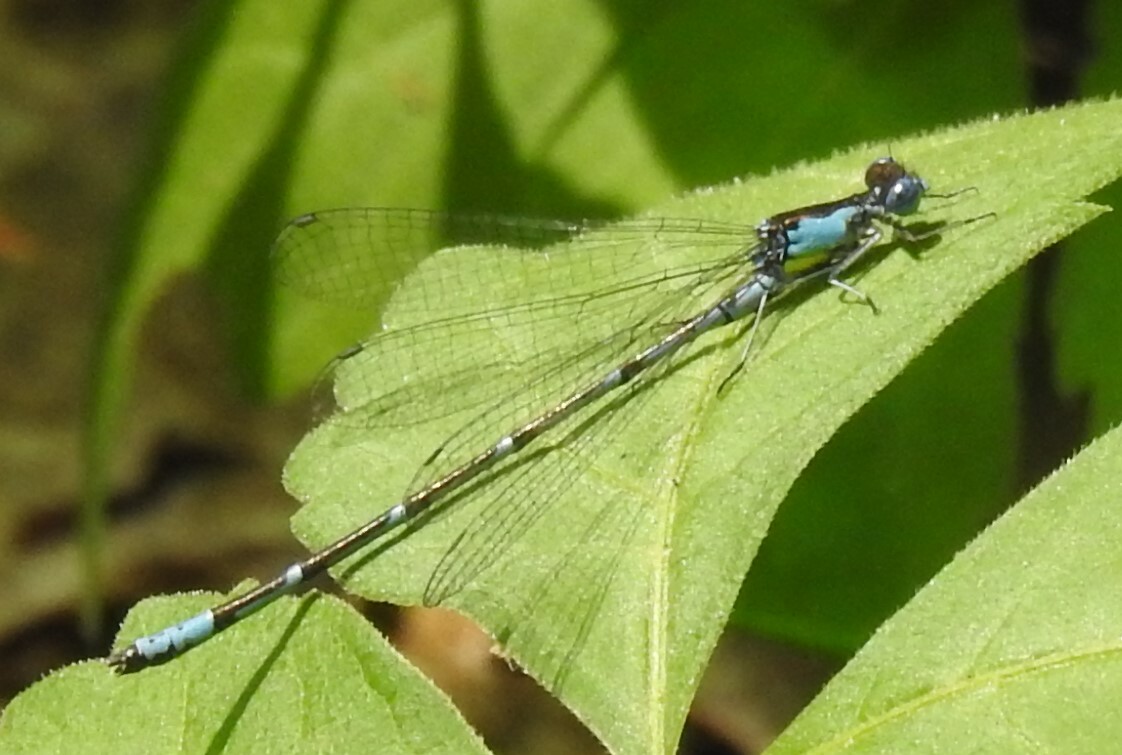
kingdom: Animalia
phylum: Arthropoda
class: Insecta
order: Odonata
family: Coenagrionidae
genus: Chromagrion
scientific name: Chromagrion conditum
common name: Aurora damsel
